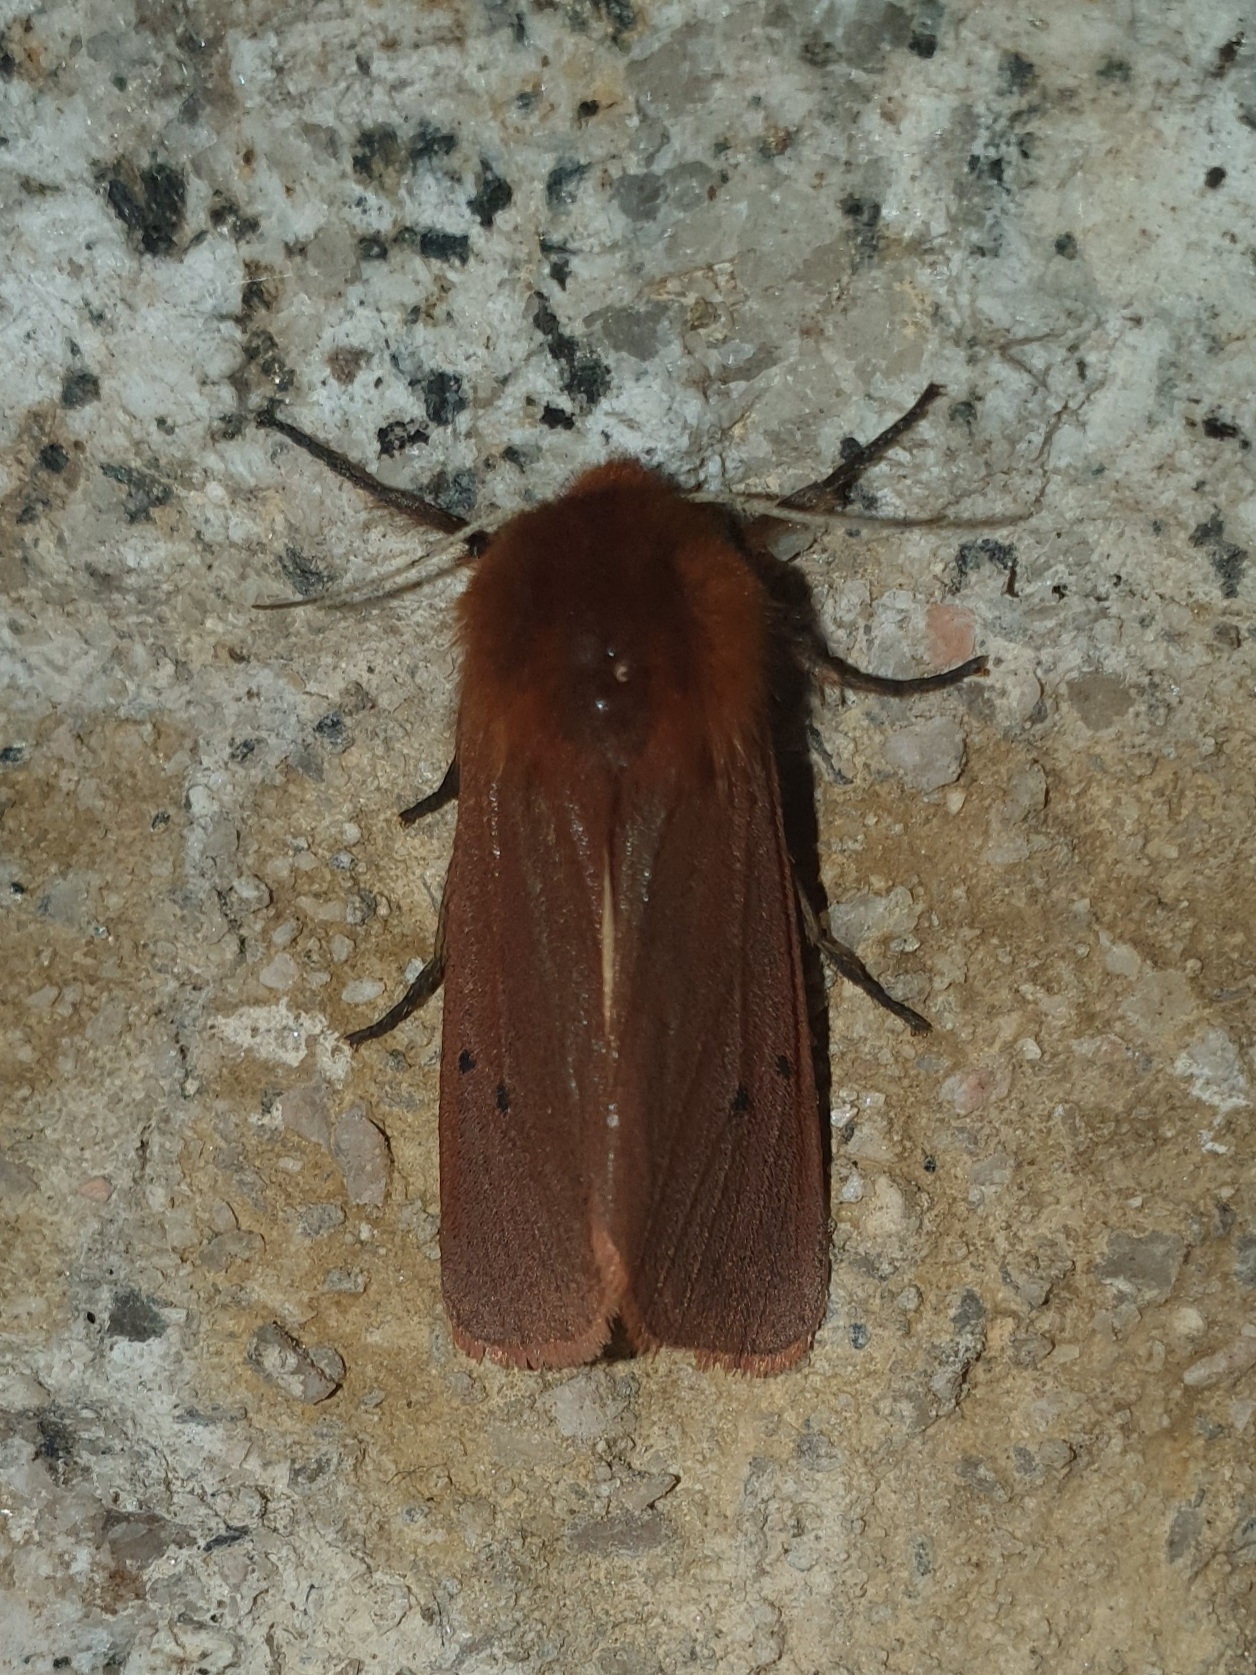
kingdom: Animalia
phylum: Arthropoda
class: Insecta
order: Lepidoptera
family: Erebidae
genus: Phragmatobia
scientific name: Phragmatobia fuliginosa
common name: Ruby tiger
